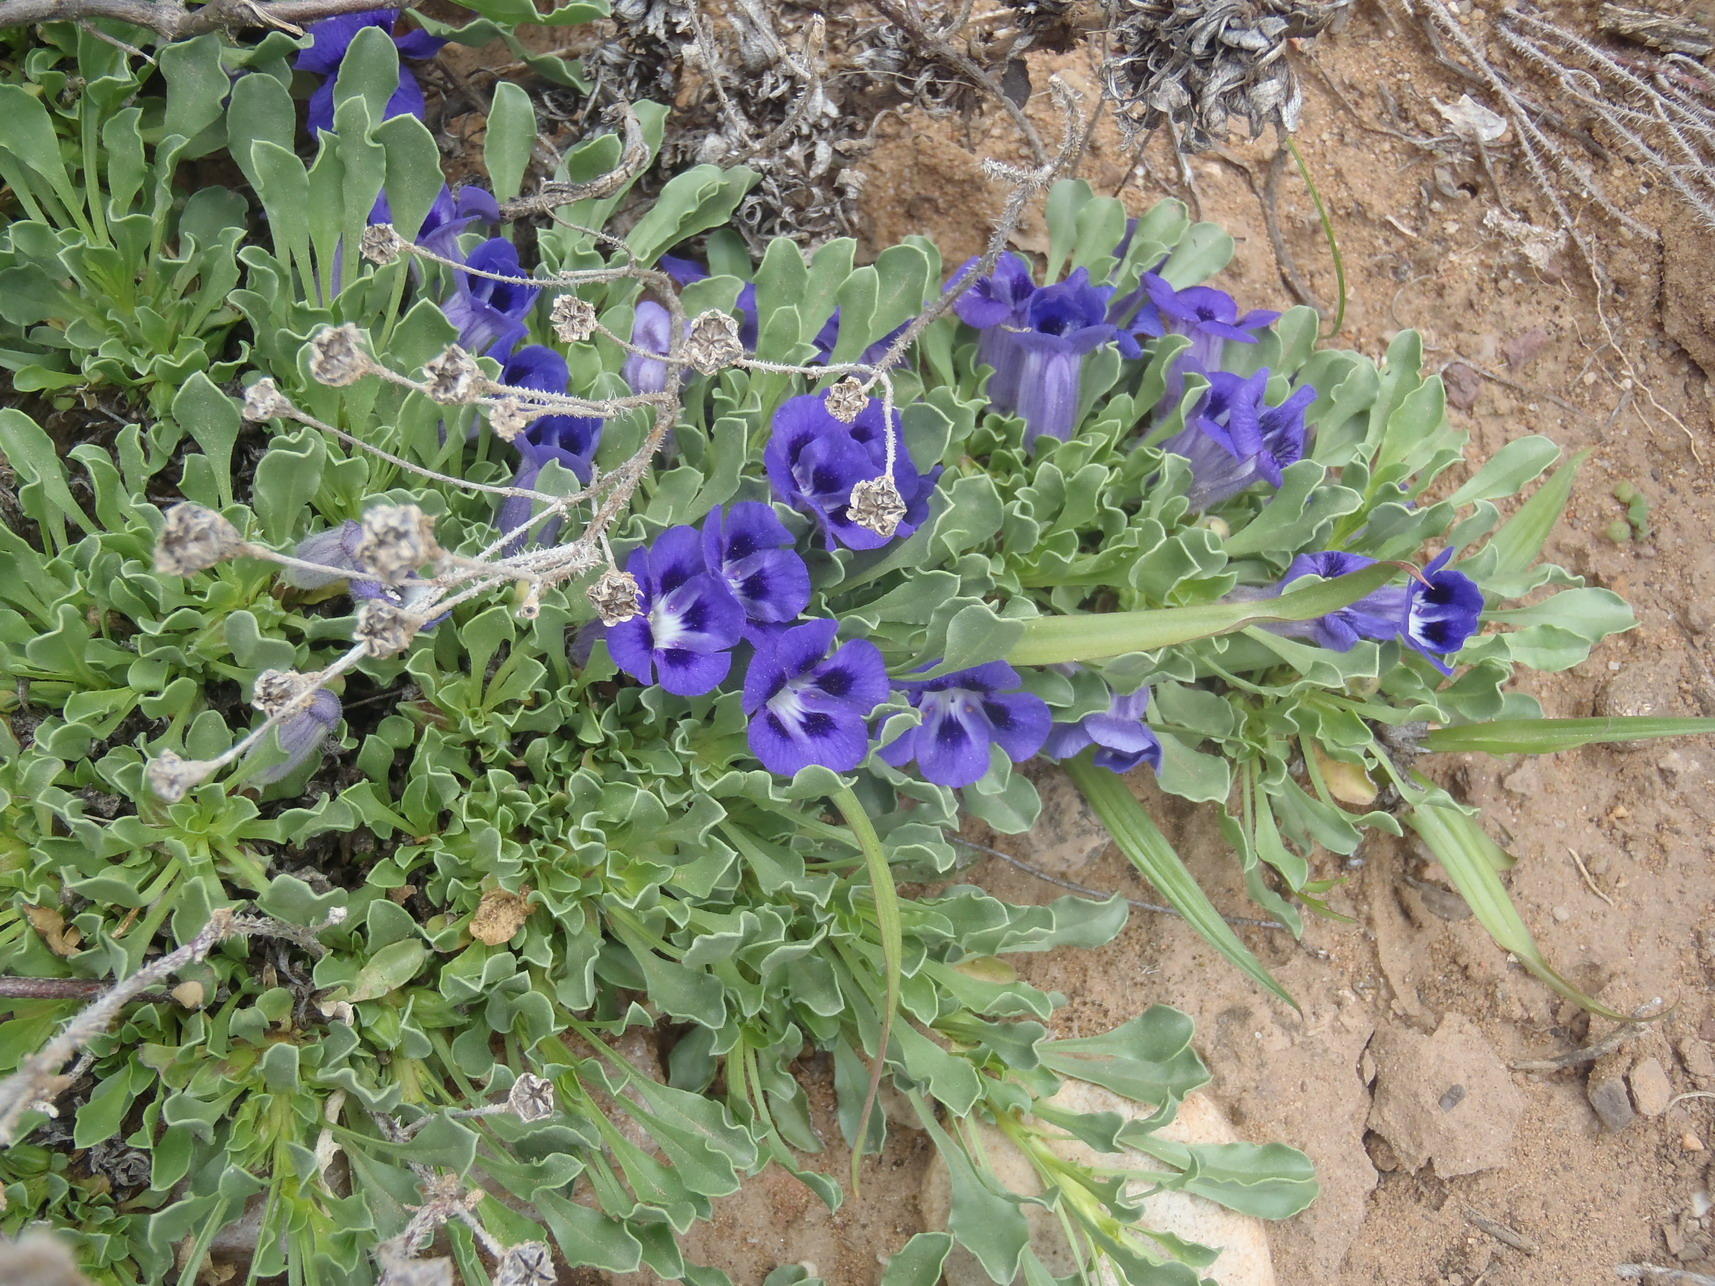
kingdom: Plantae
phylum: Tracheophyta
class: Magnoliopsida
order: Lamiales
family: Scrophulariaceae
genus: Aptosimum
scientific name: Aptosimum procumbens
